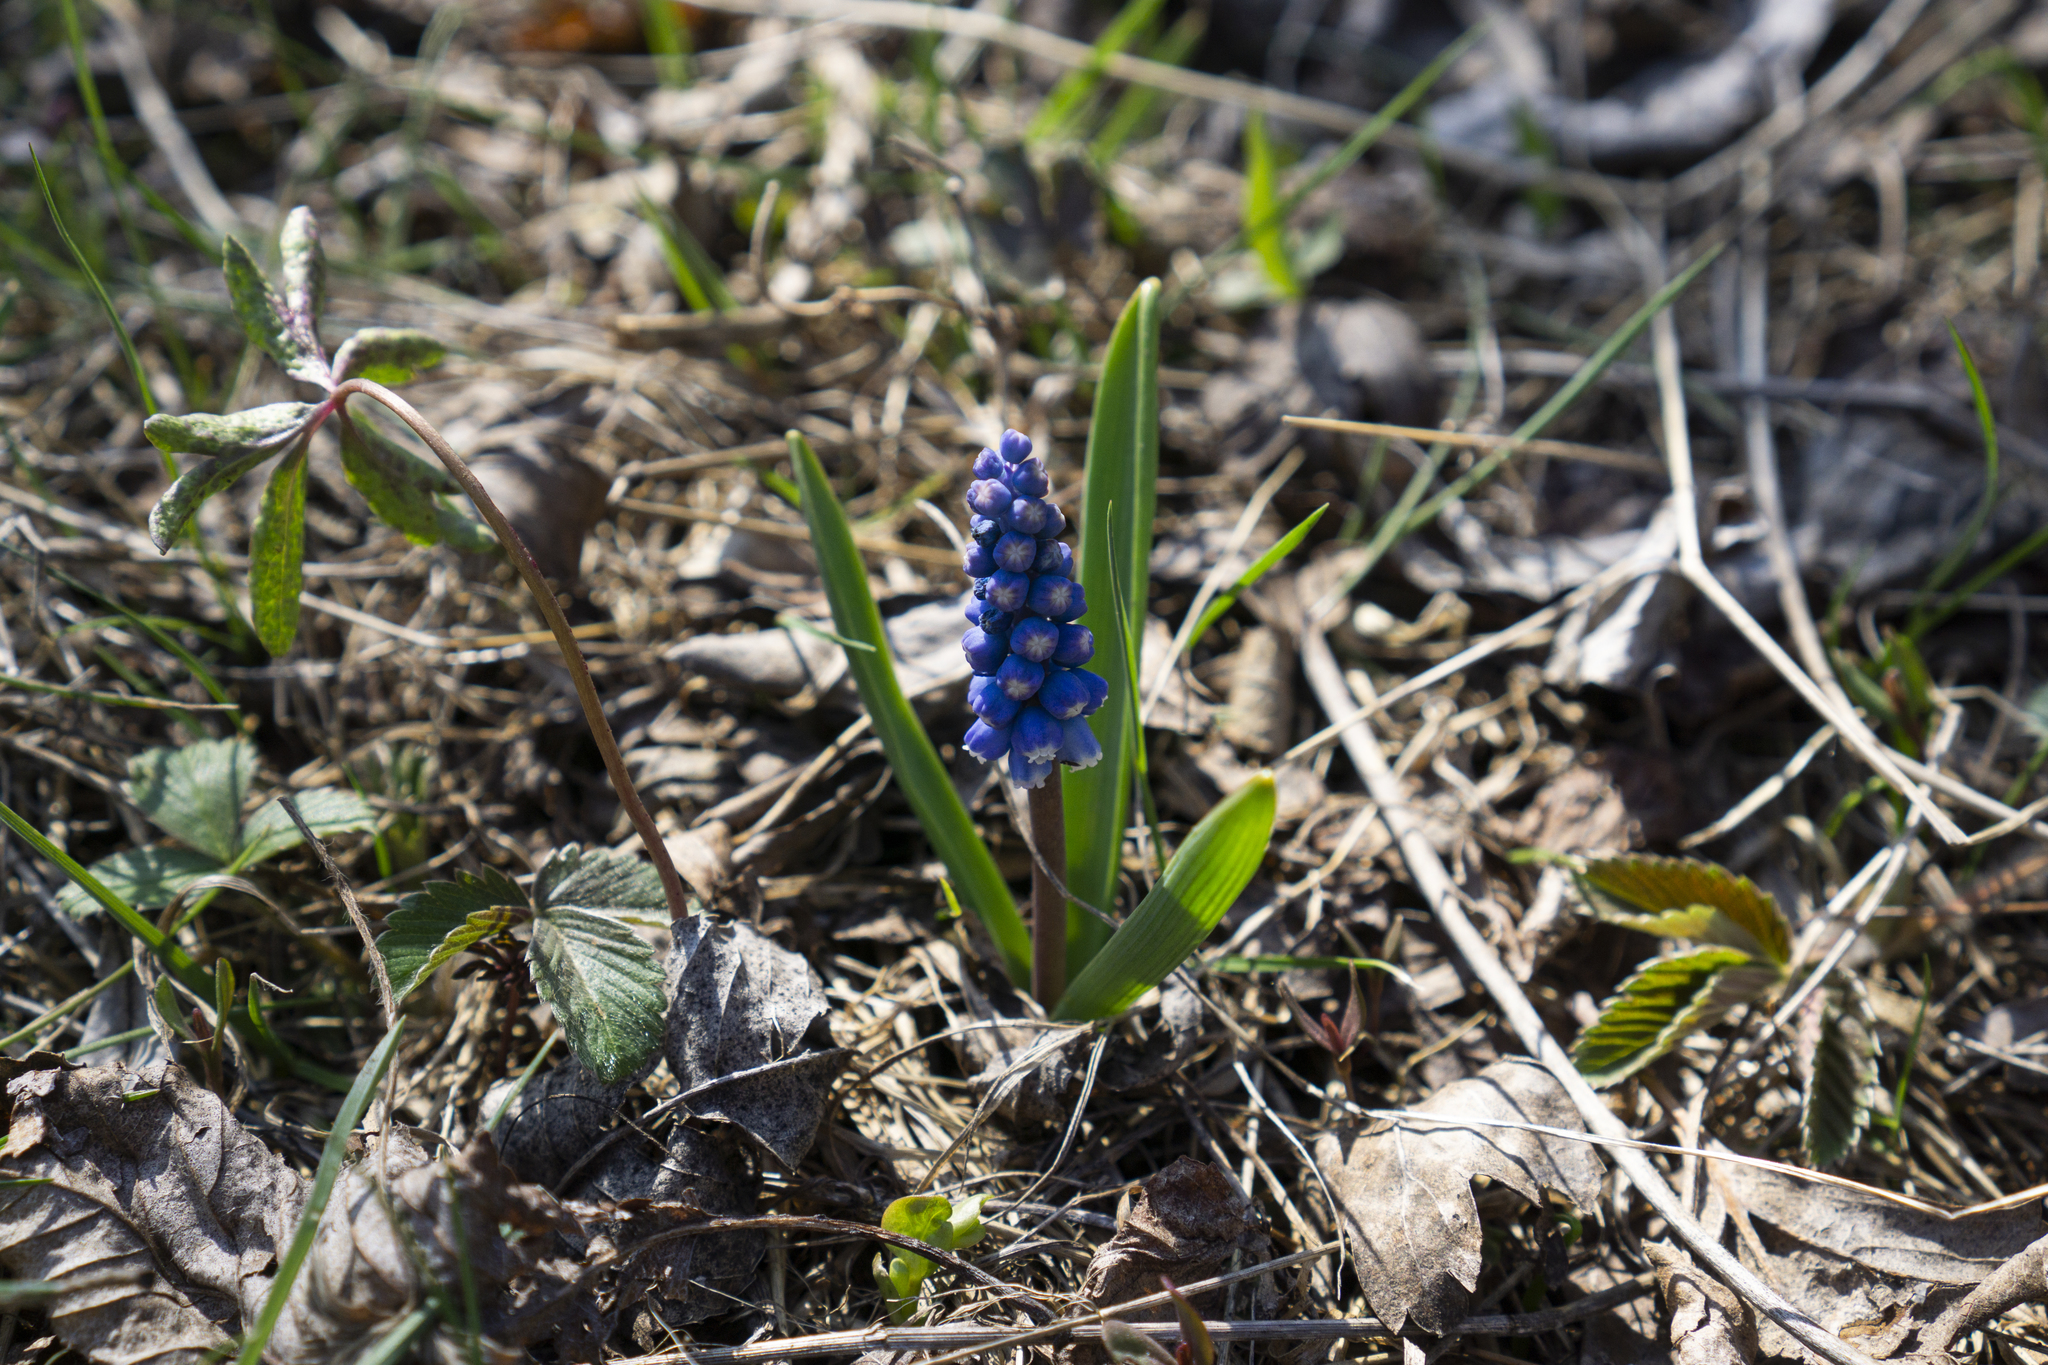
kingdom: Plantae
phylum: Tracheophyta
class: Liliopsida
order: Asparagales
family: Asparagaceae
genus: Muscari
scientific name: Muscari botryoides
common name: Compact grape-hyacinth
